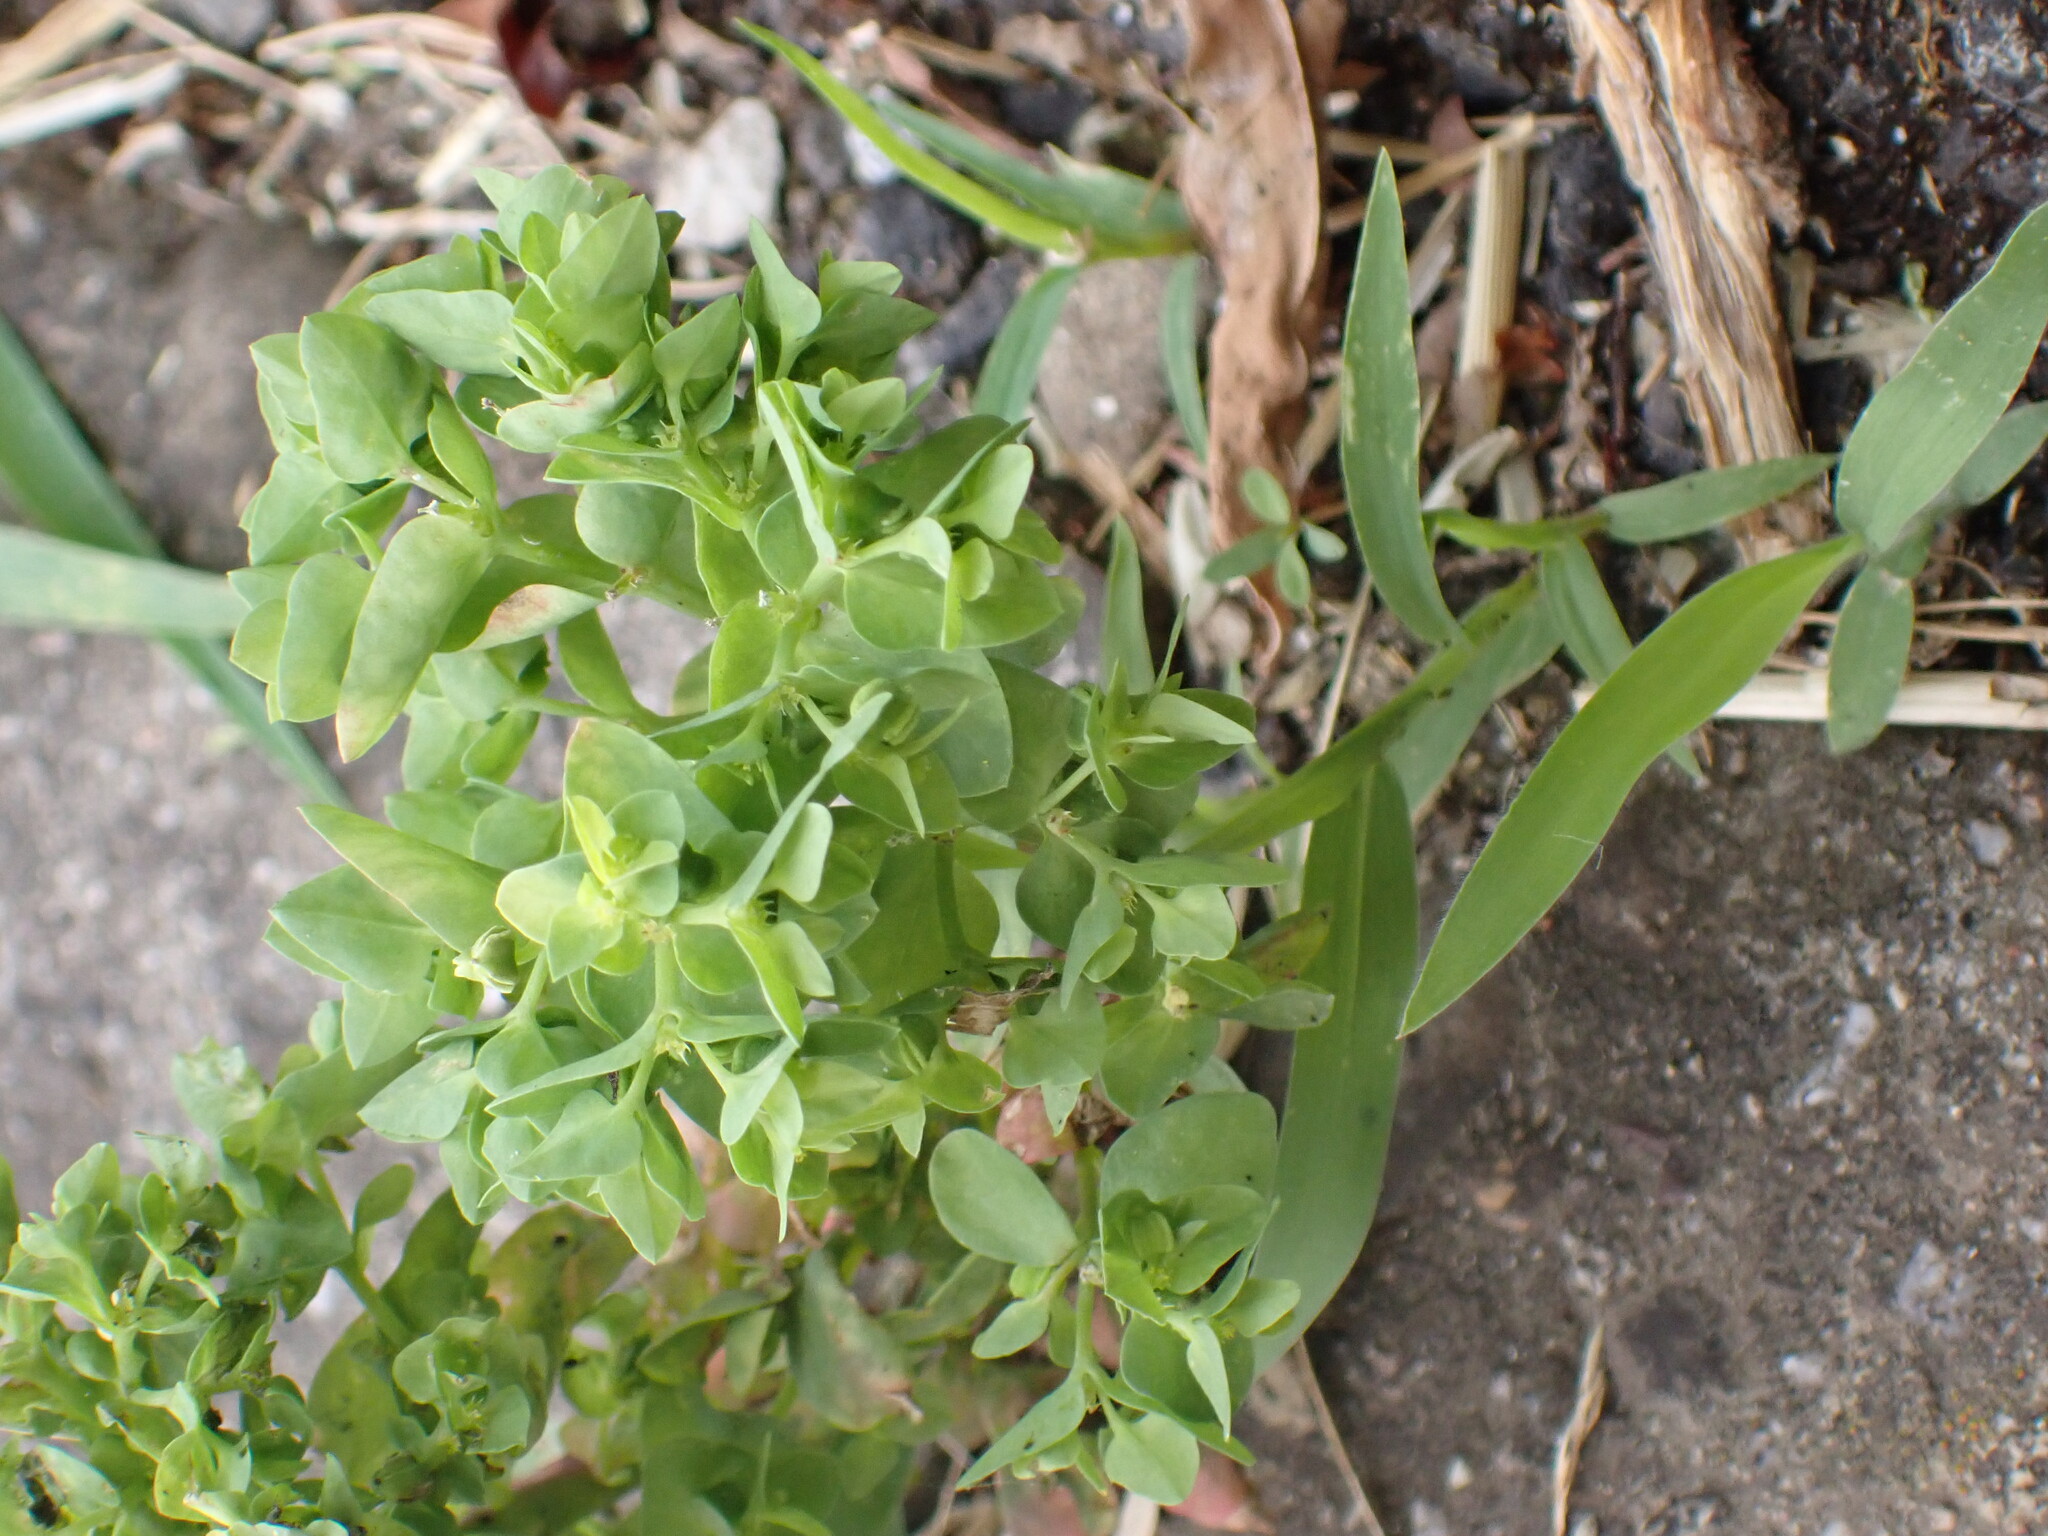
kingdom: Plantae
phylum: Tracheophyta
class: Magnoliopsida
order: Malpighiales
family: Euphorbiaceae
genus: Euphorbia
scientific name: Euphorbia peplus
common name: Petty spurge
